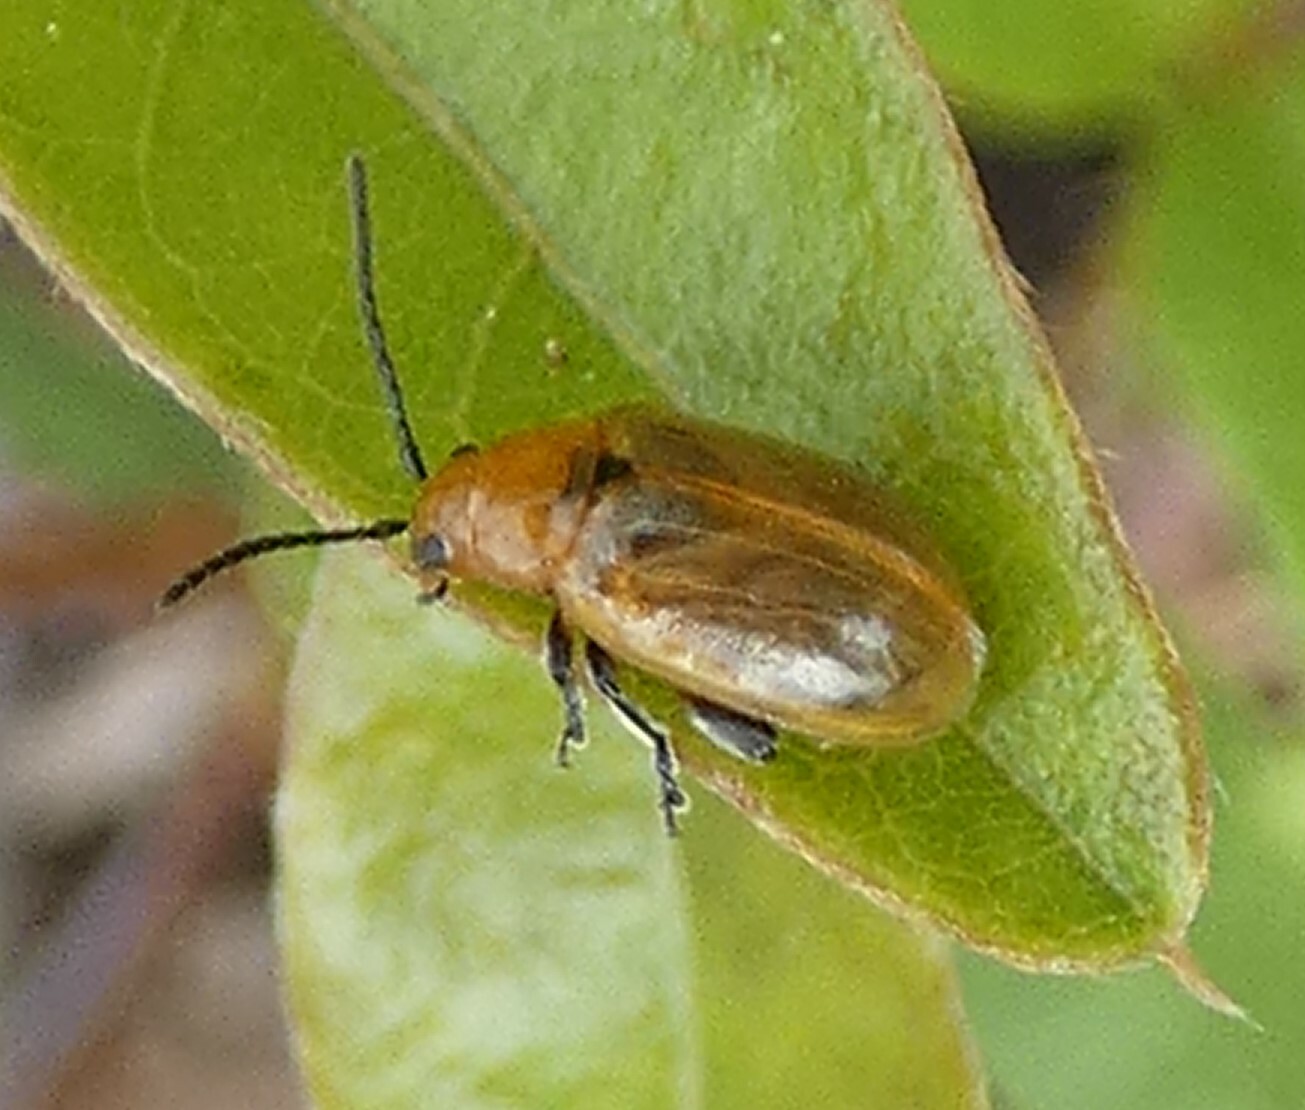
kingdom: Animalia
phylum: Arthropoda
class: Insecta
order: Coleoptera
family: Chrysomelidae
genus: Strabala
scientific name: Strabala rufa
